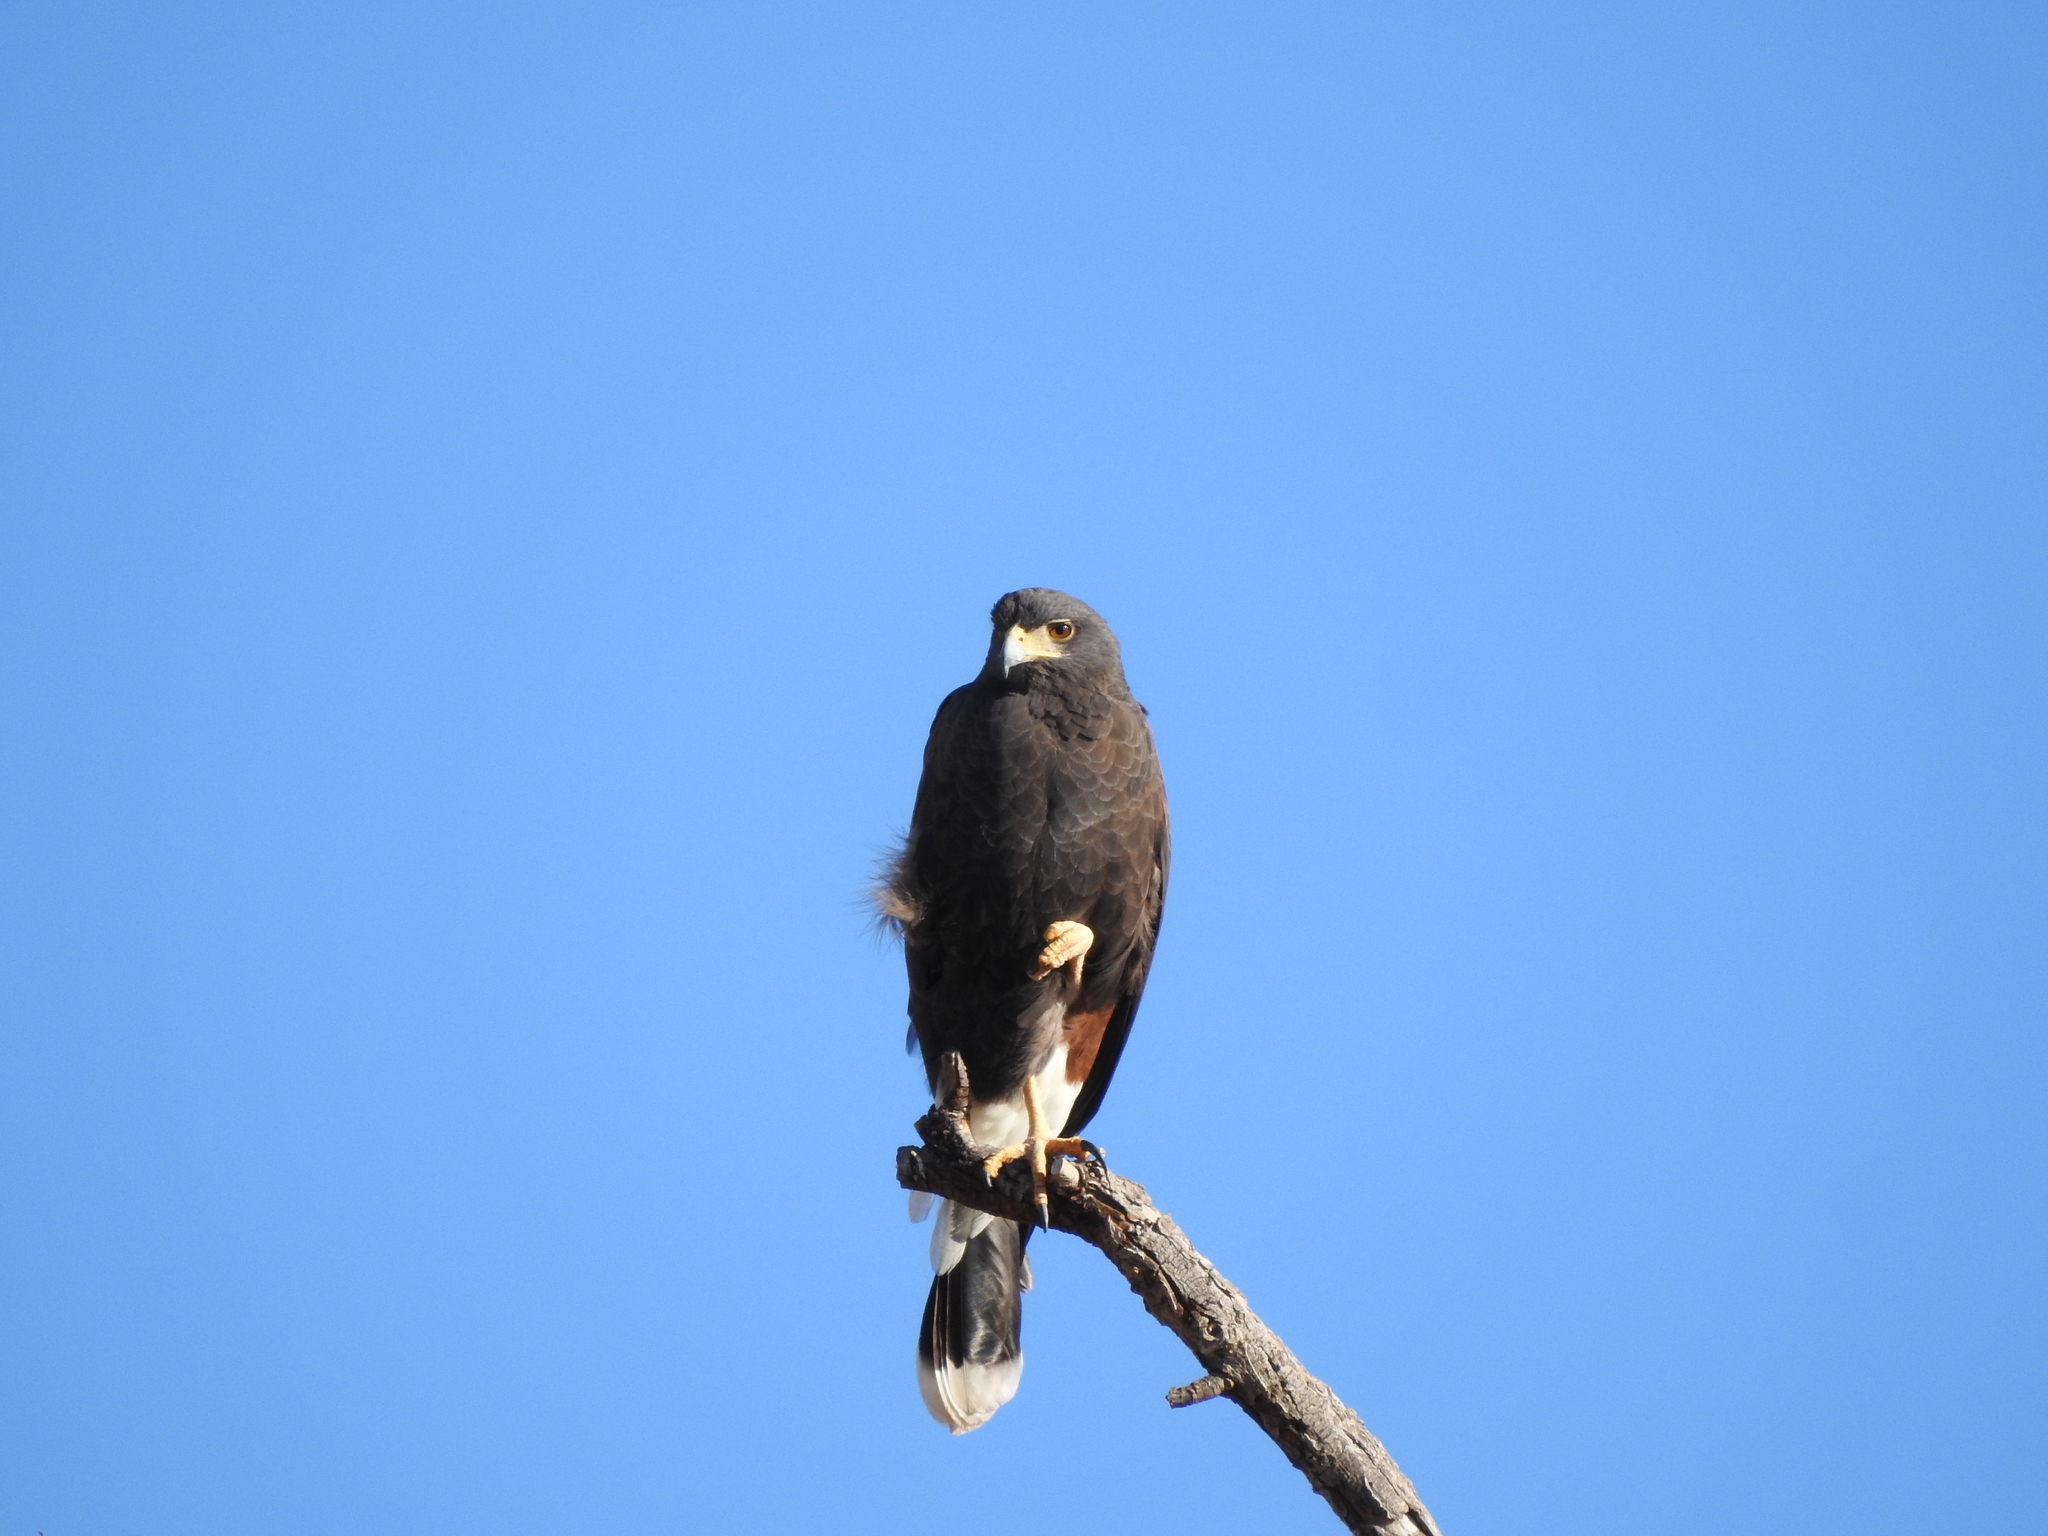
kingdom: Animalia
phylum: Chordata
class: Aves
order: Accipitriformes
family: Accipitridae
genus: Parabuteo
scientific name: Parabuteo unicinctus
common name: Harris's hawk
